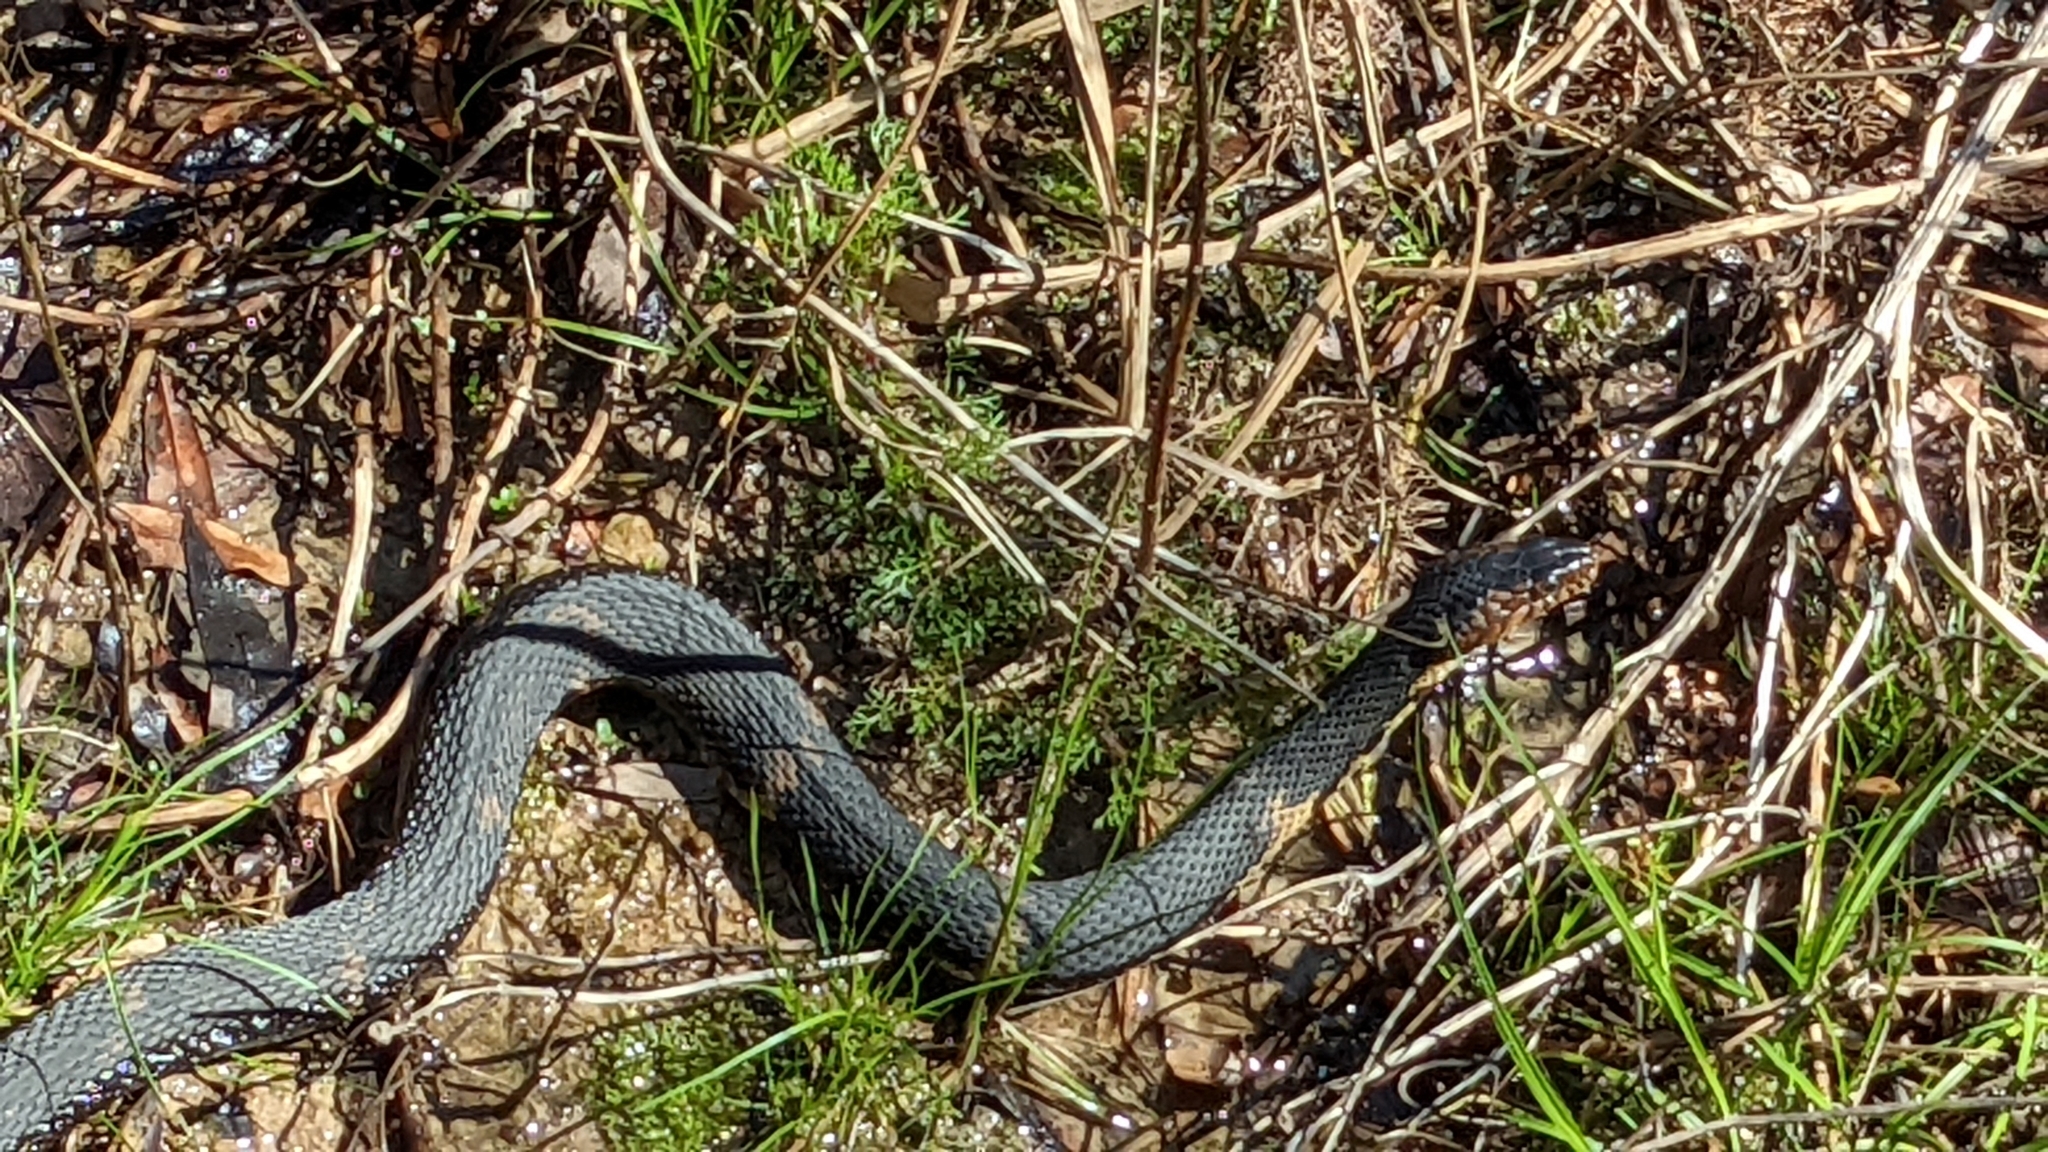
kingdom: Animalia
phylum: Chordata
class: Squamata
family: Colubridae
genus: Nerodia
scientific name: Nerodia fasciata
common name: Southern water snake
